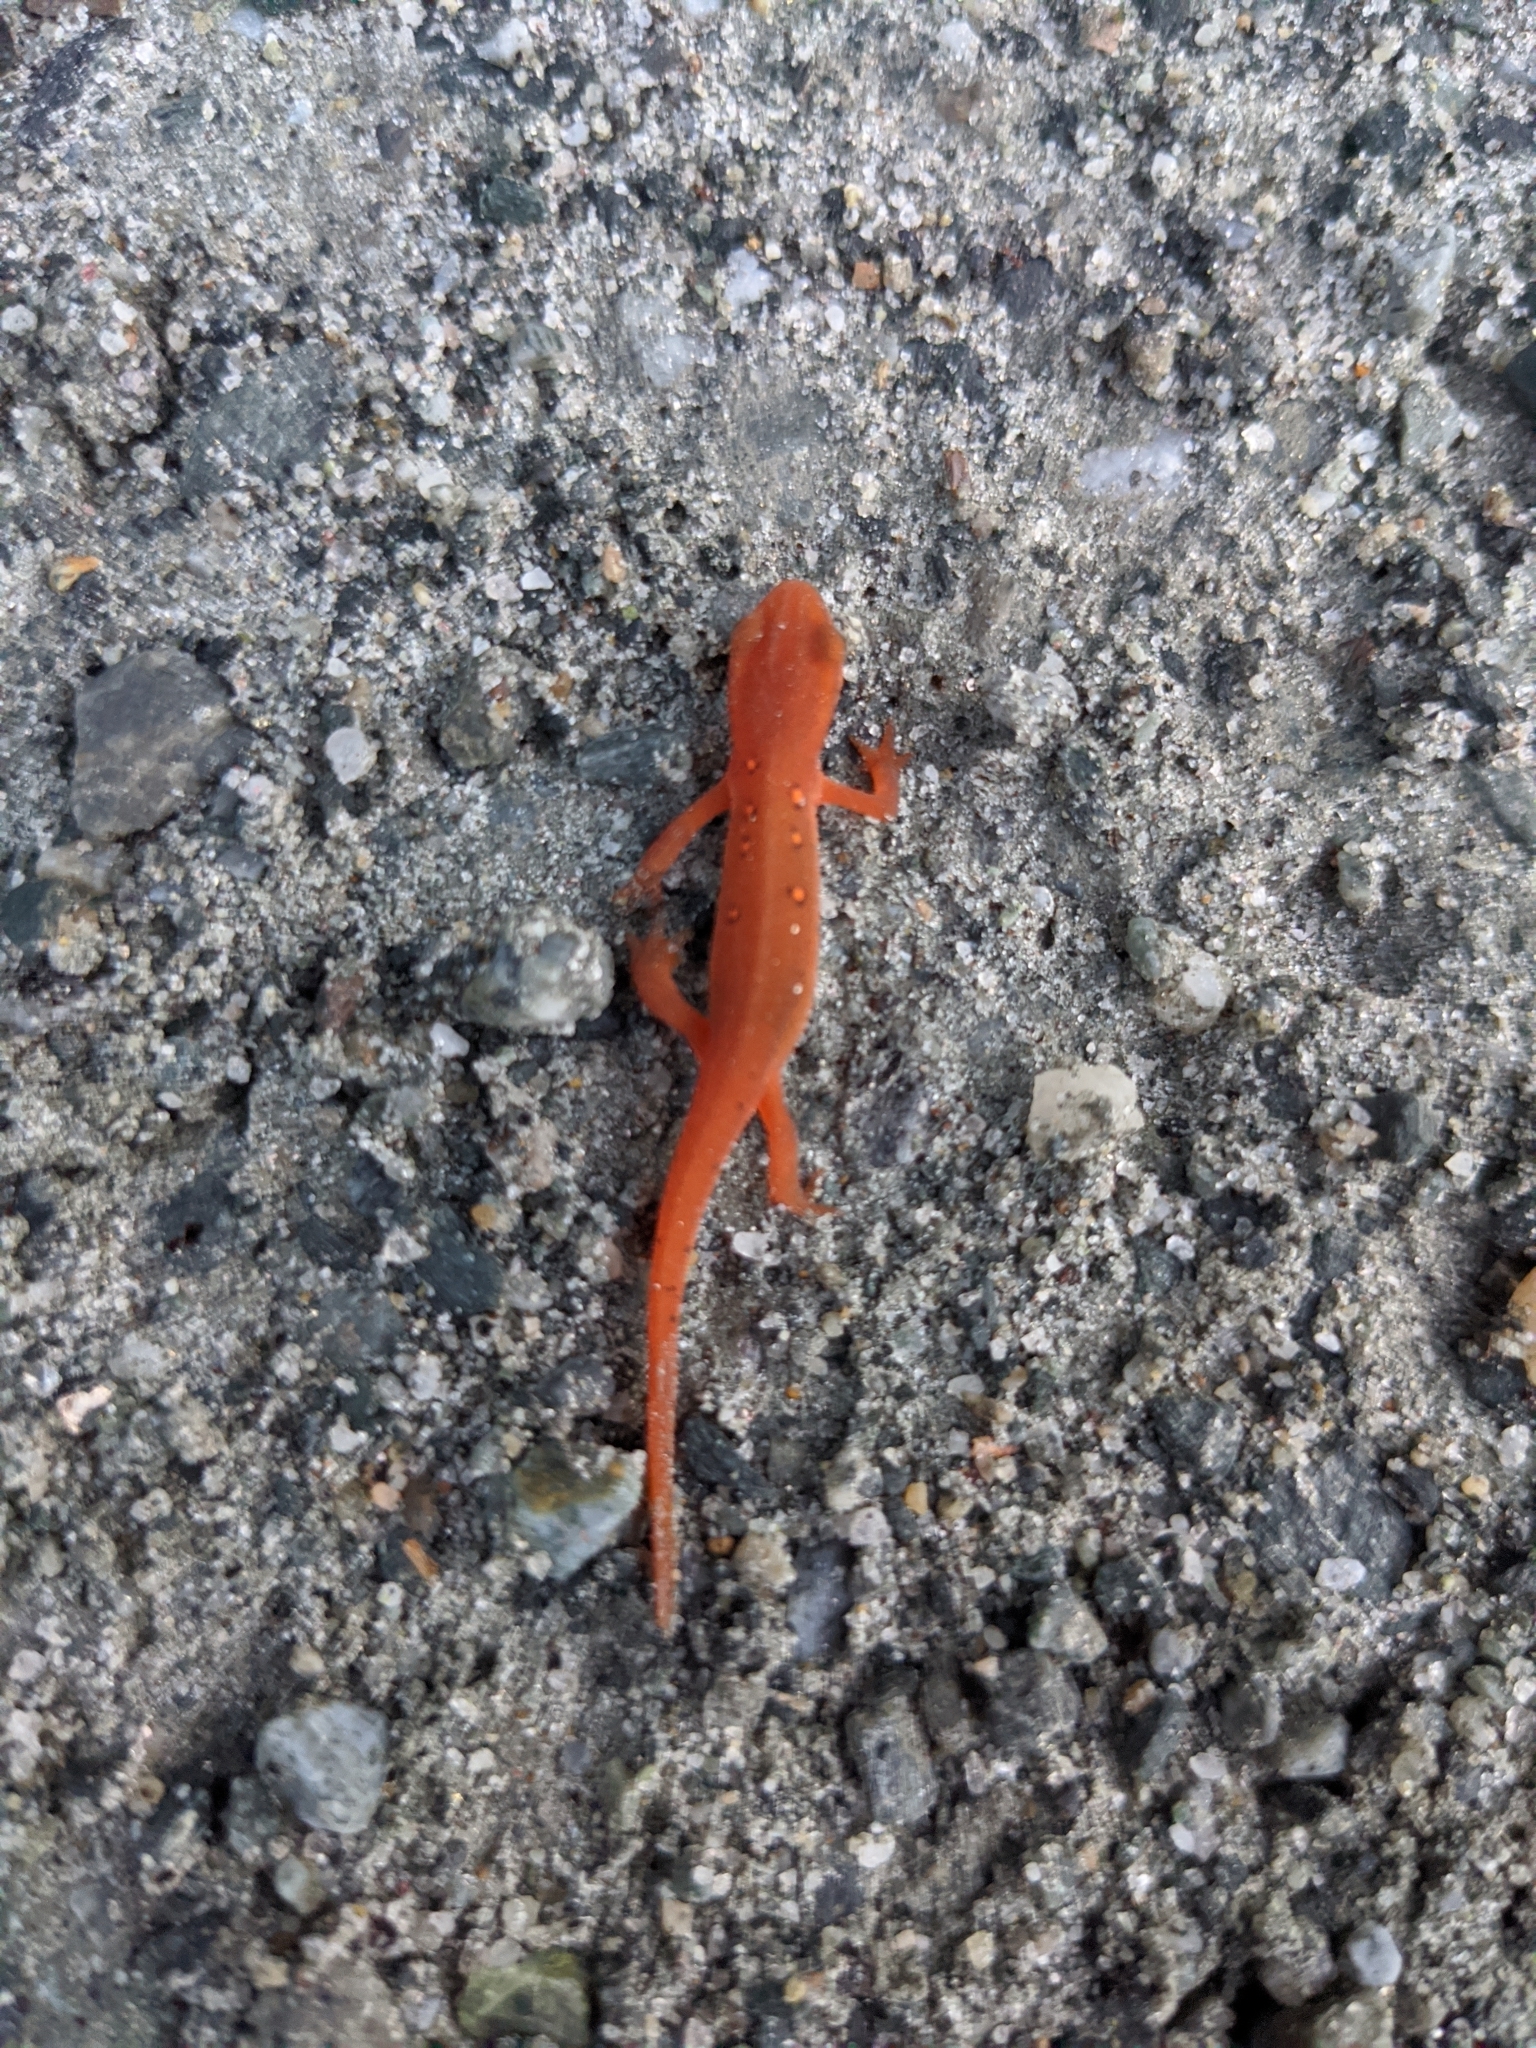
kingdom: Animalia
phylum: Chordata
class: Amphibia
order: Caudata
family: Salamandridae
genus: Notophthalmus
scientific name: Notophthalmus viridescens
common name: Eastern newt
